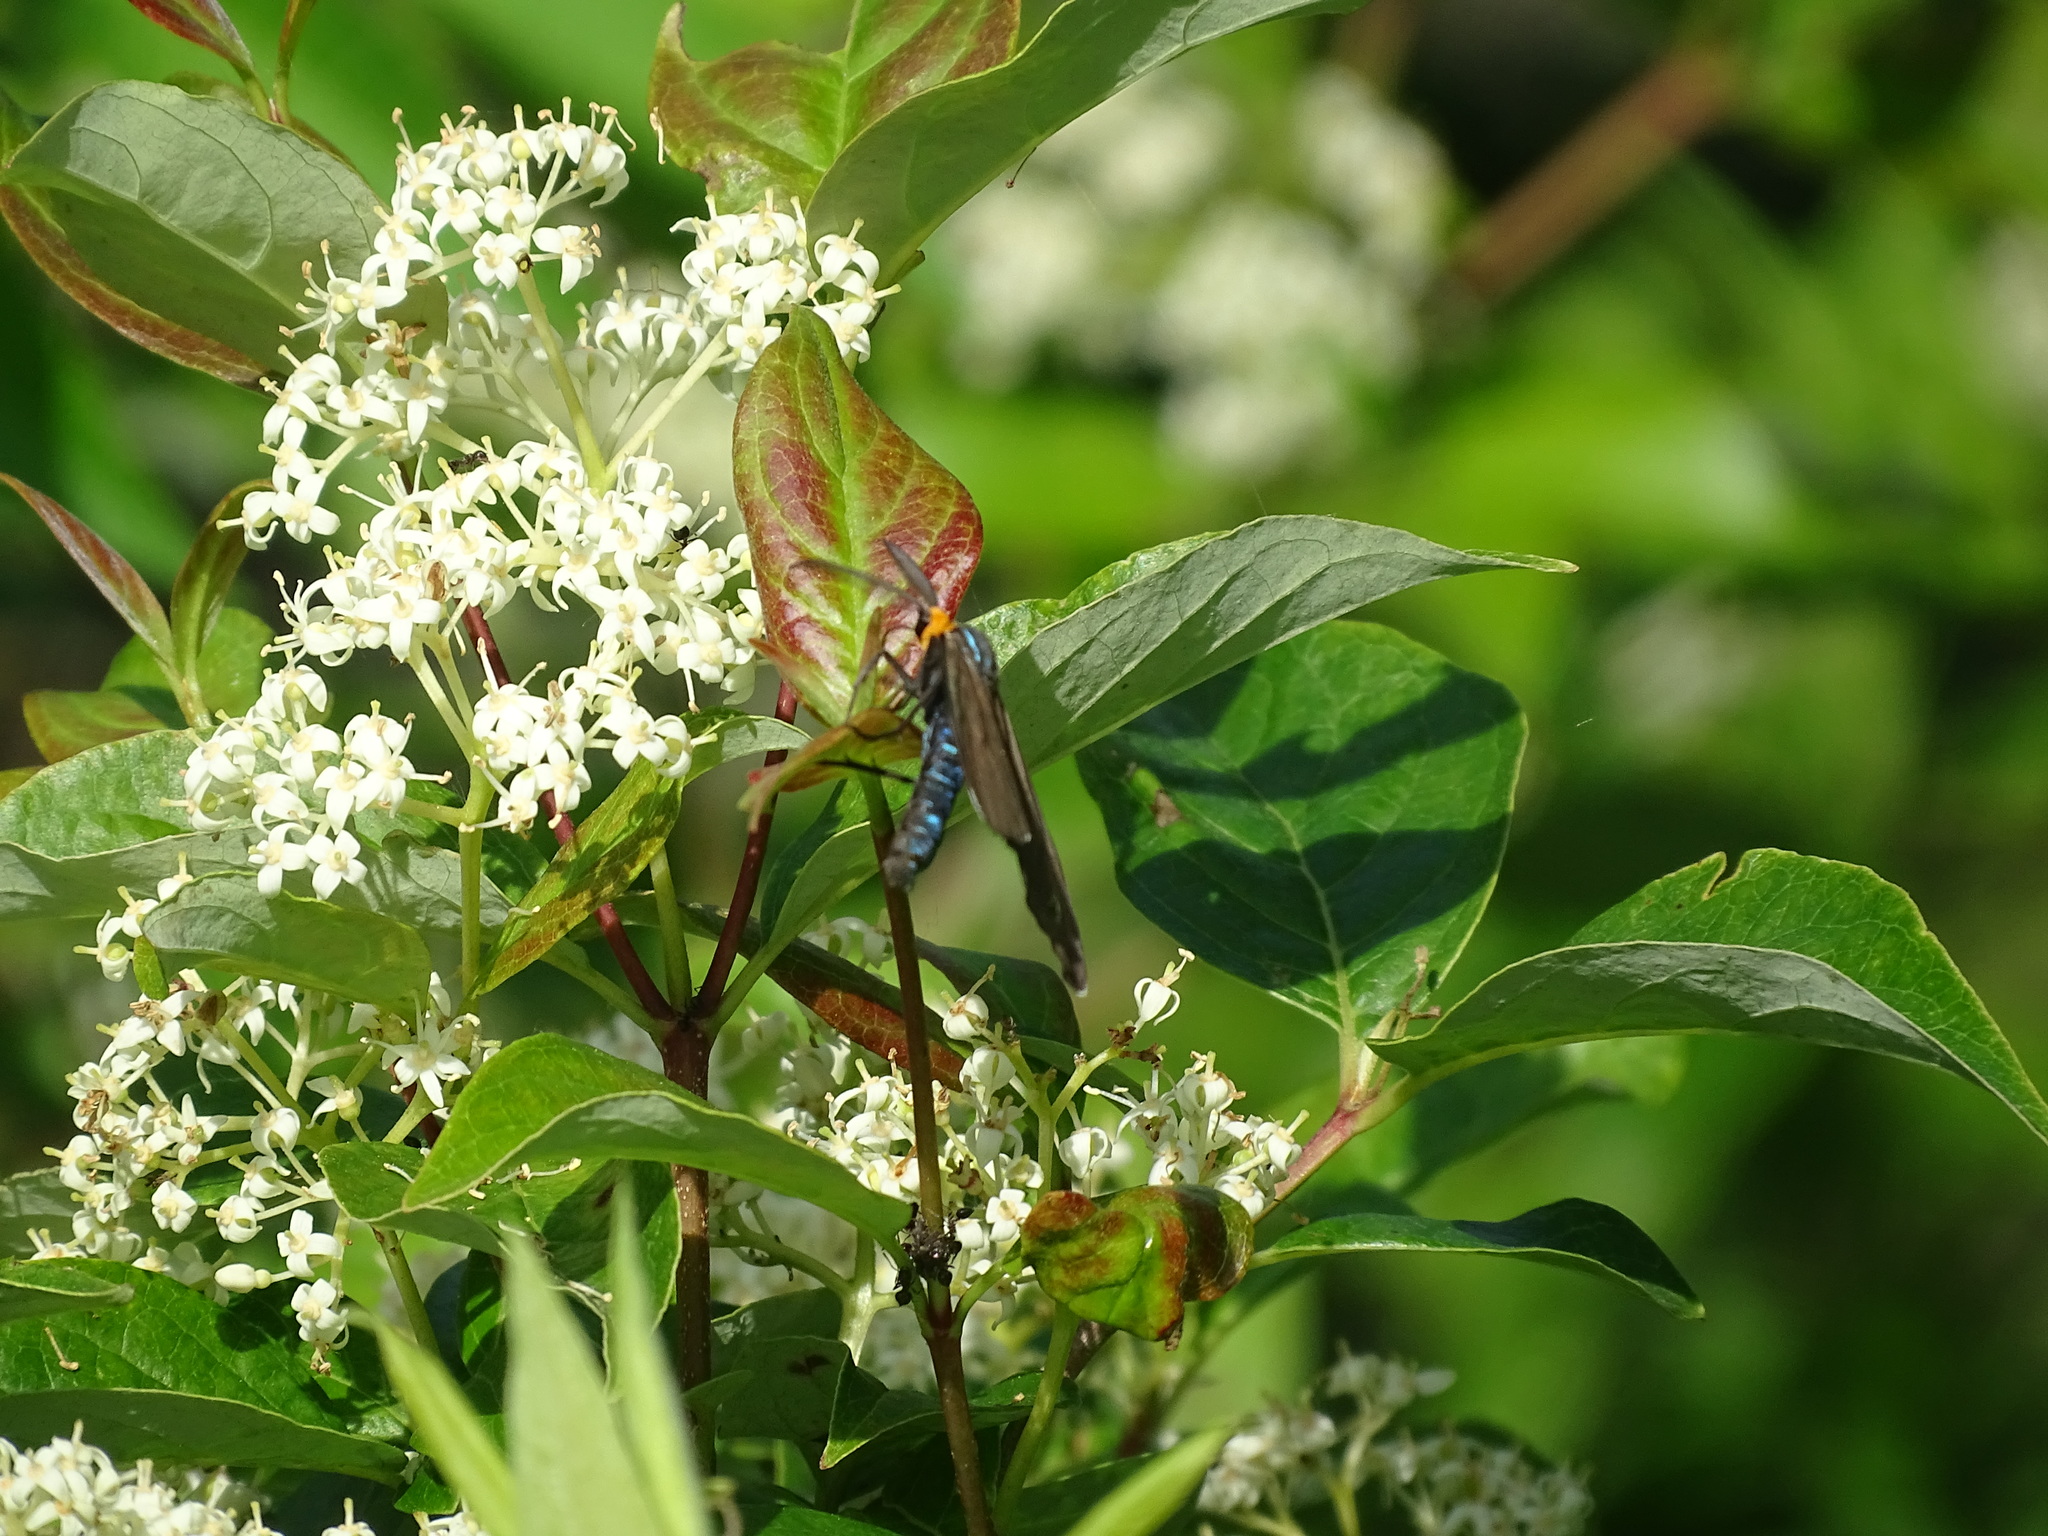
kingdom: Animalia
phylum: Arthropoda
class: Insecta
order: Lepidoptera
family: Erebidae
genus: Ctenucha
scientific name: Ctenucha virginica
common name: Virginia ctenucha moth
